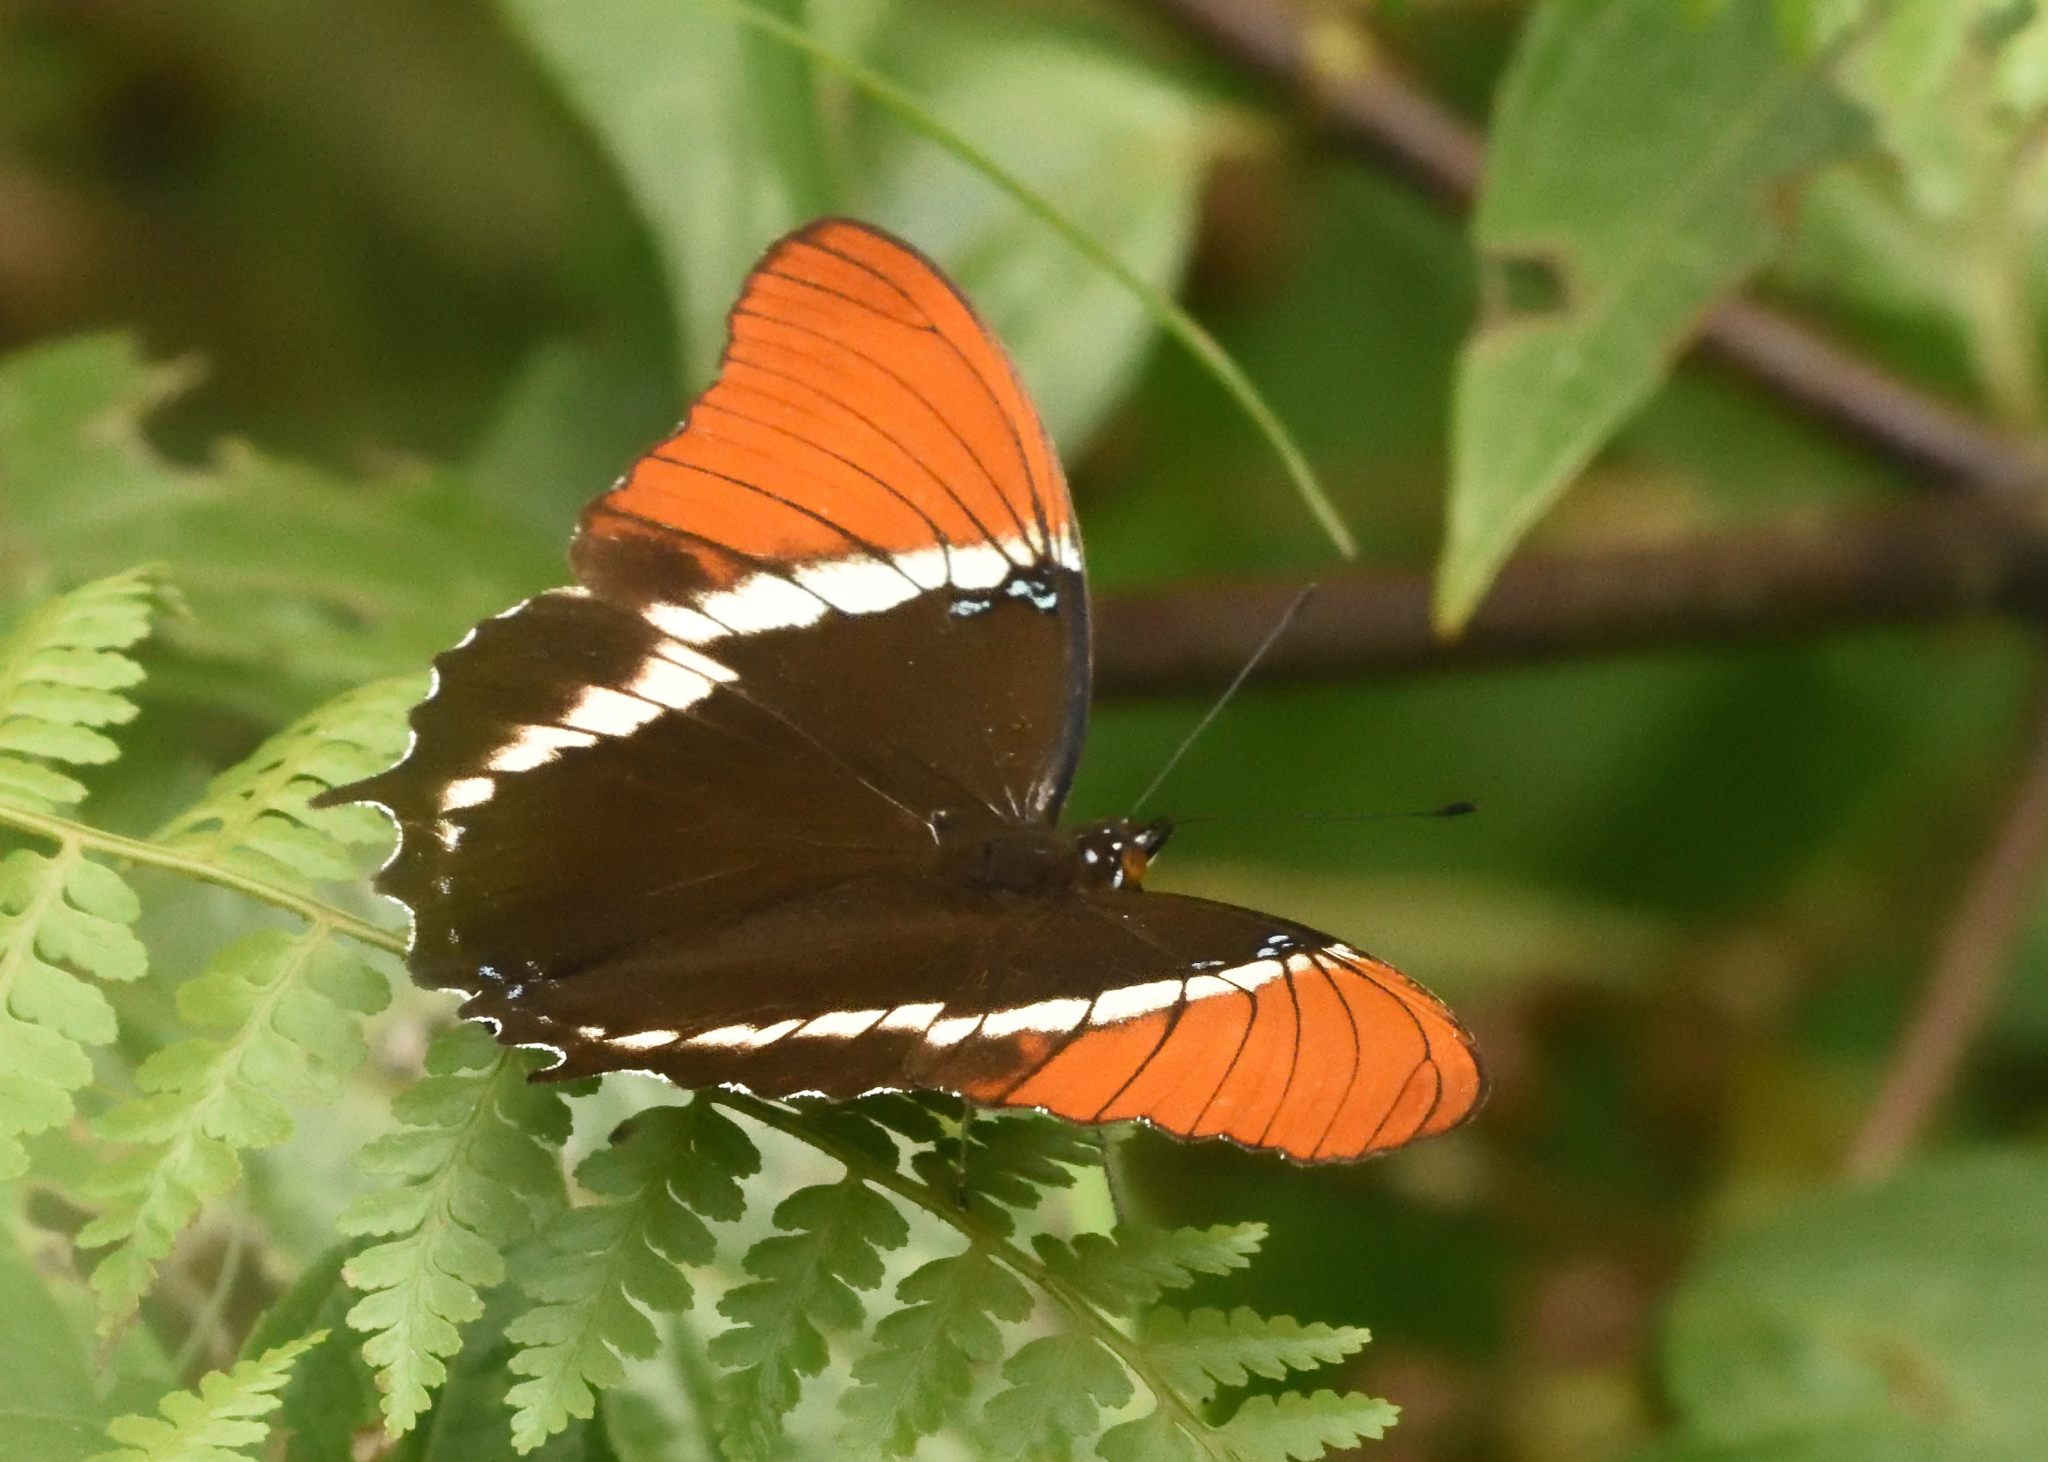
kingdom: Animalia
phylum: Arthropoda
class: Insecta
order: Lepidoptera
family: Nymphalidae
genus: Siproeta
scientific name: Siproeta epaphus
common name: Rusty-tipped page
